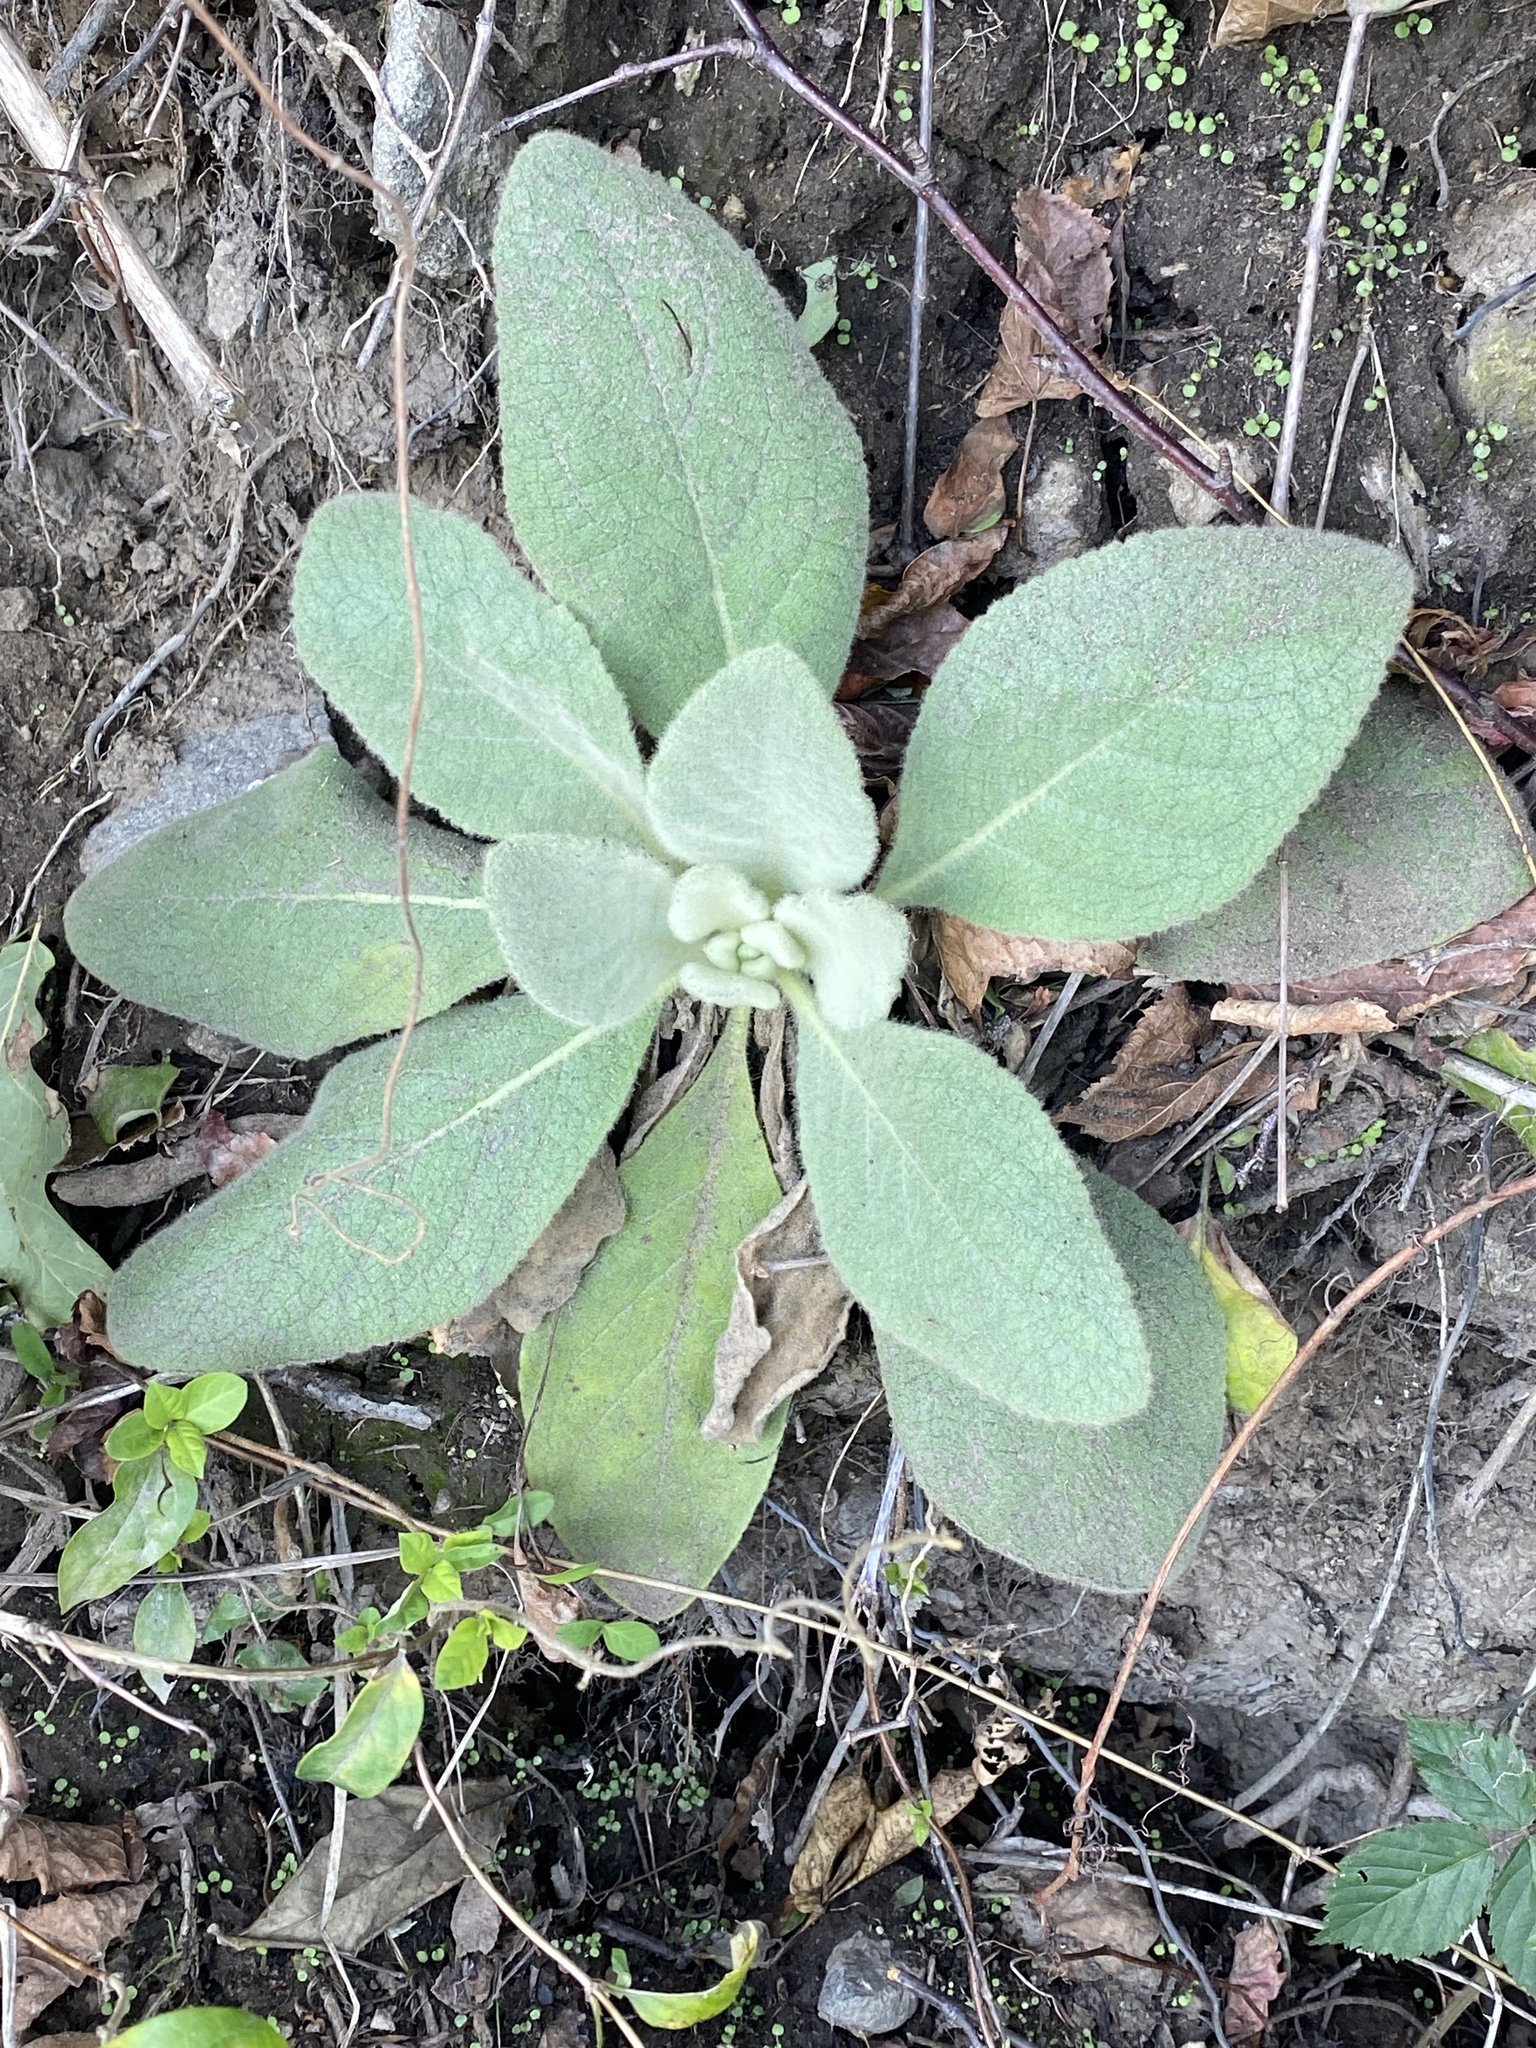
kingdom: Plantae
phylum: Tracheophyta
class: Magnoliopsida
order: Lamiales
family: Scrophulariaceae
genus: Verbascum
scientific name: Verbascum thapsus
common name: Common mullein
